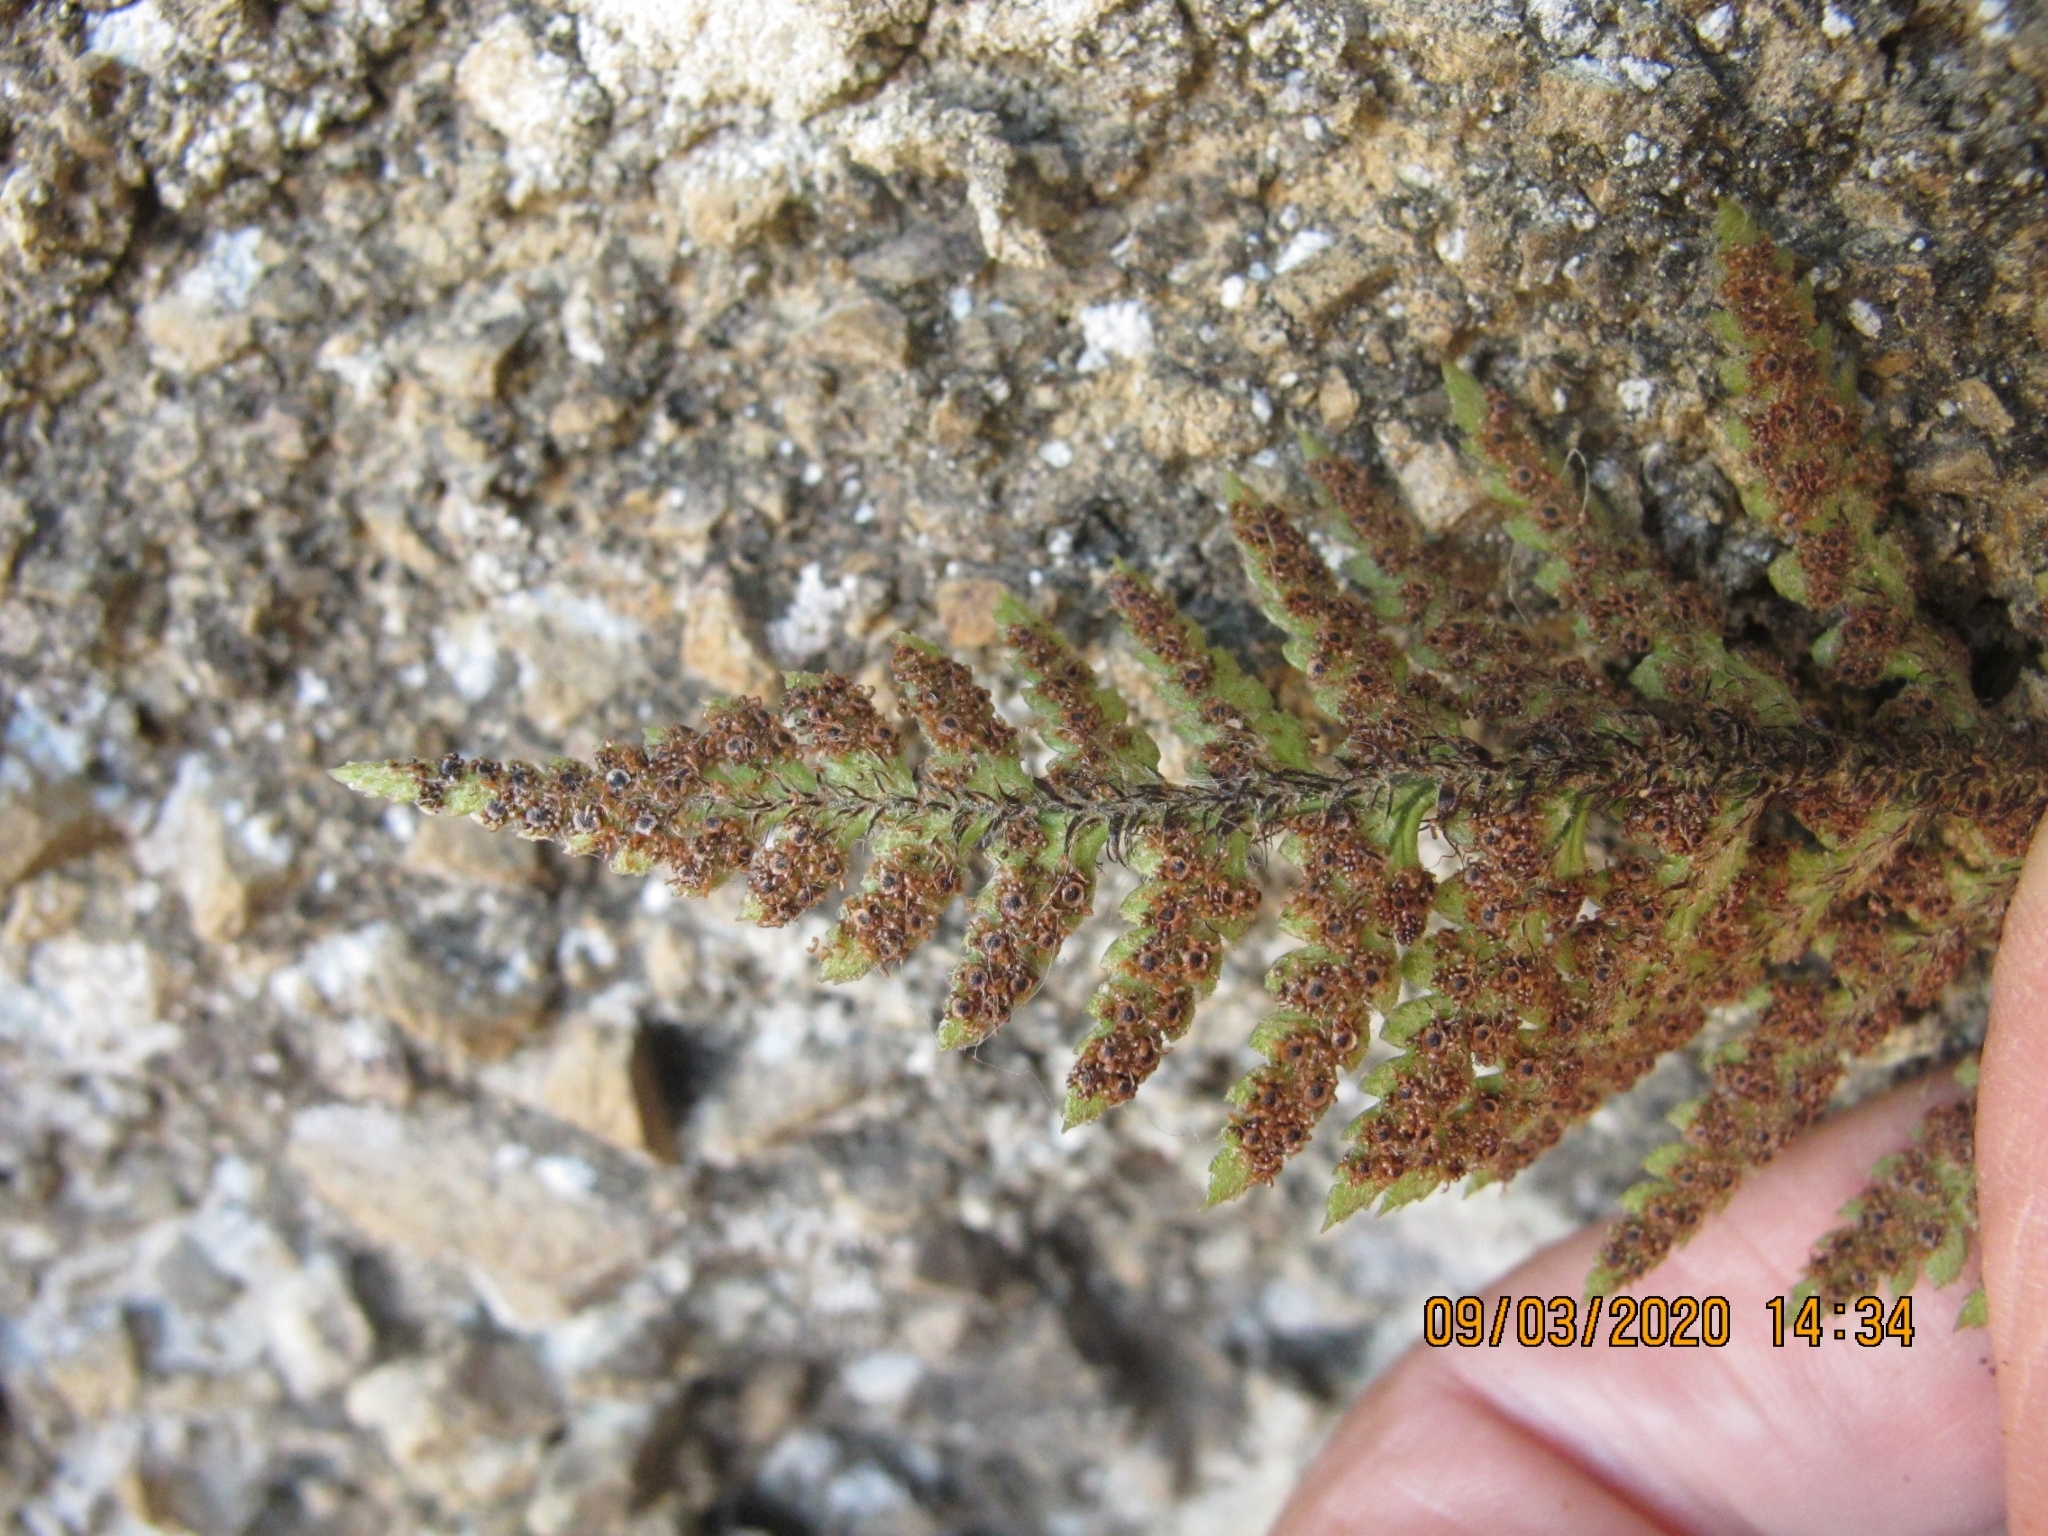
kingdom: Plantae
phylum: Tracheophyta
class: Polypodiopsida
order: Polypodiales
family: Dryopteridaceae
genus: Polystichum
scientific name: Polystichum neozelandicum
